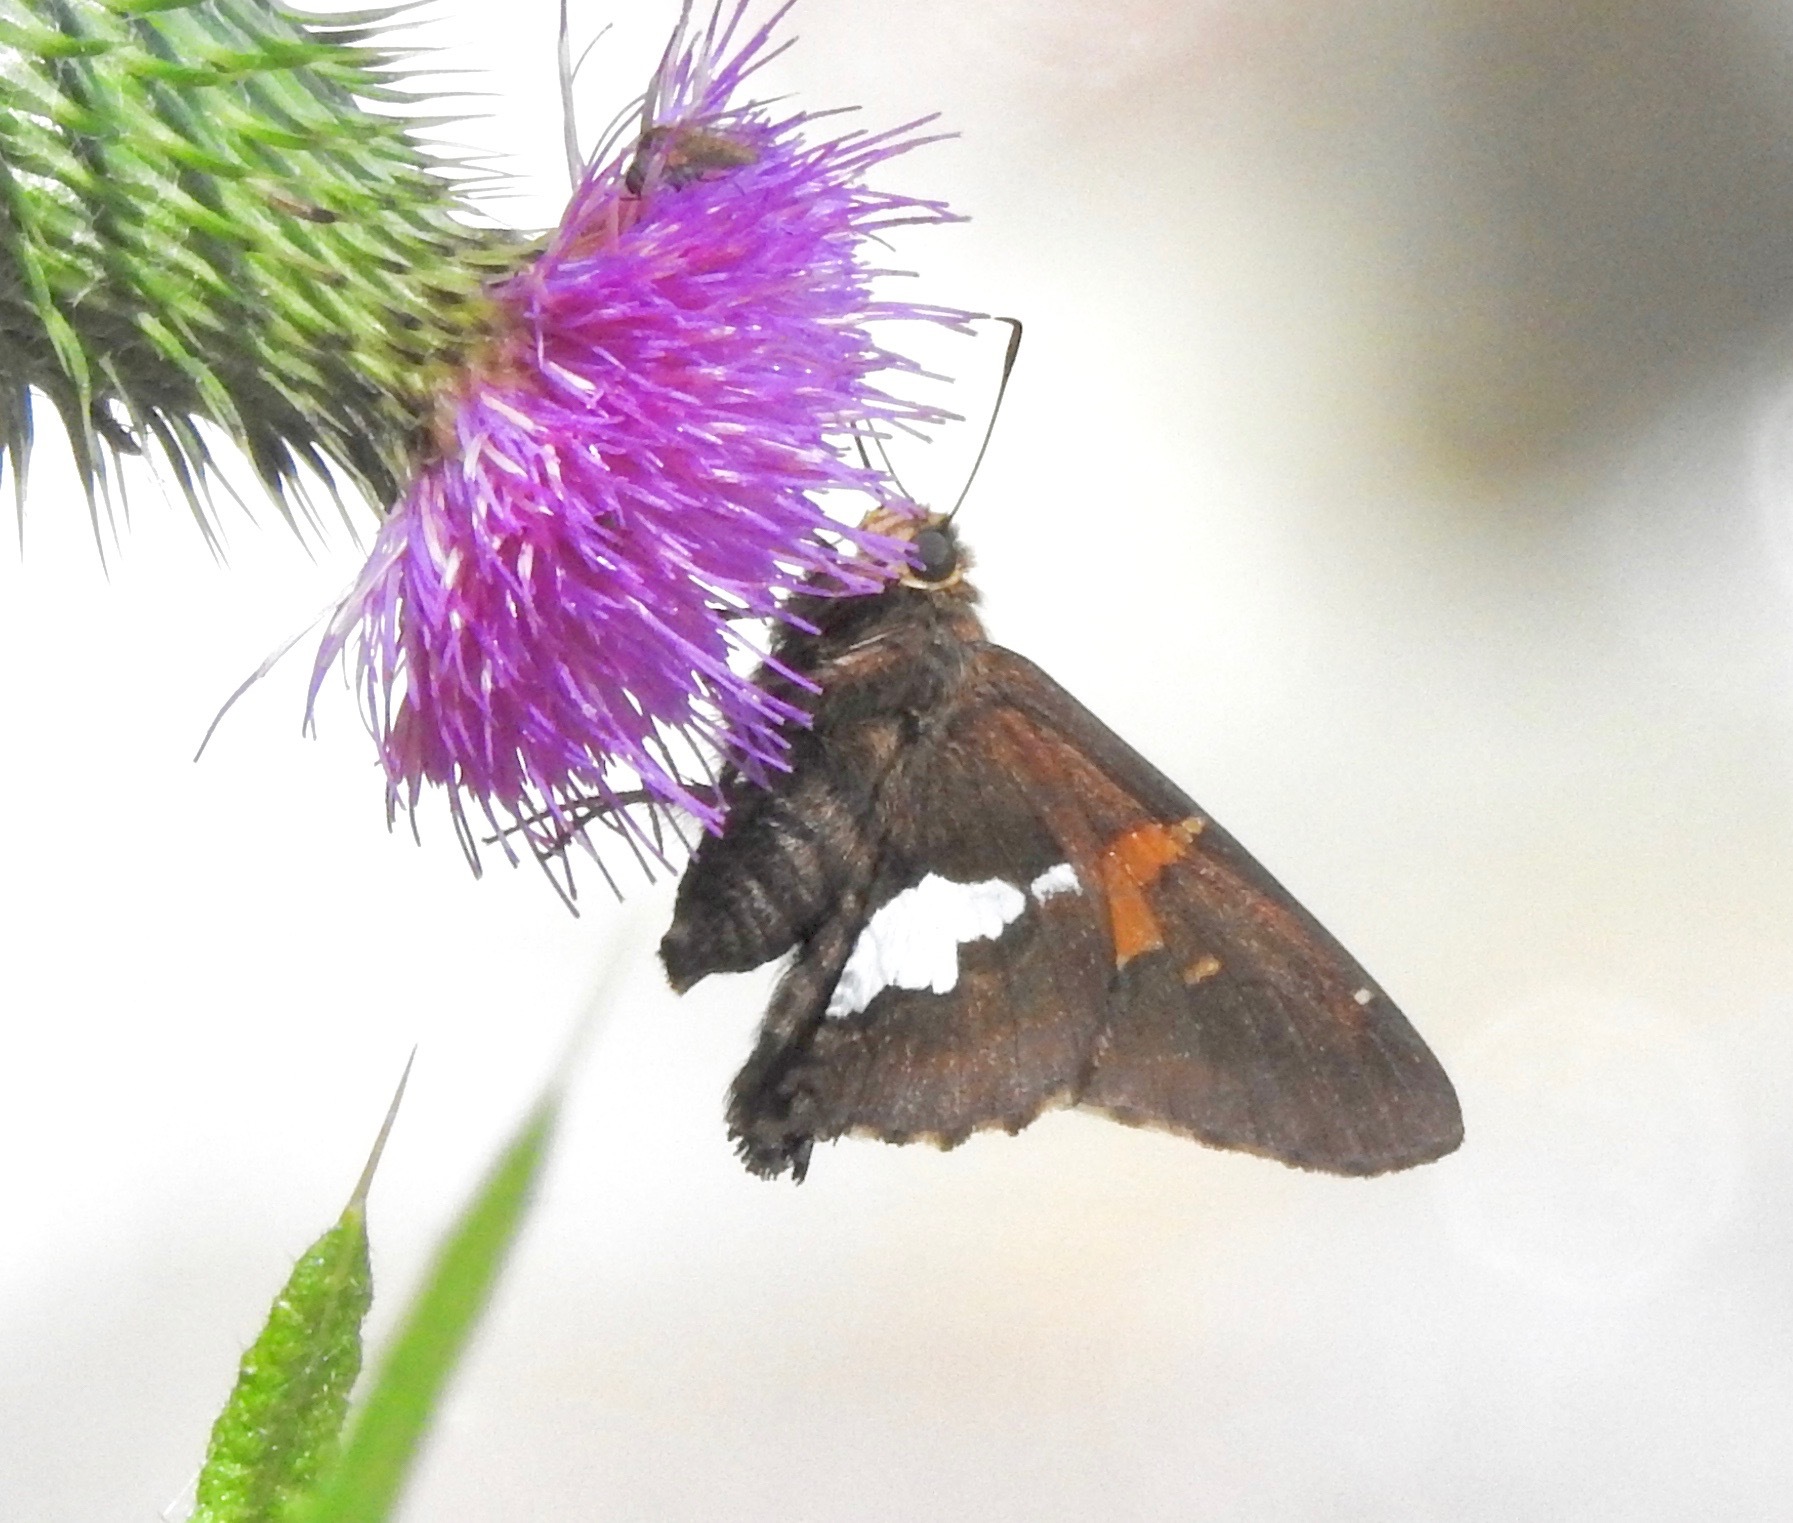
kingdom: Animalia
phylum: Arthropoda
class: Insecta
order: Lepidoptera
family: Hesperiidae
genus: Epargyreus
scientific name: Epargyreus clarus
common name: Silver-spotted skipper
